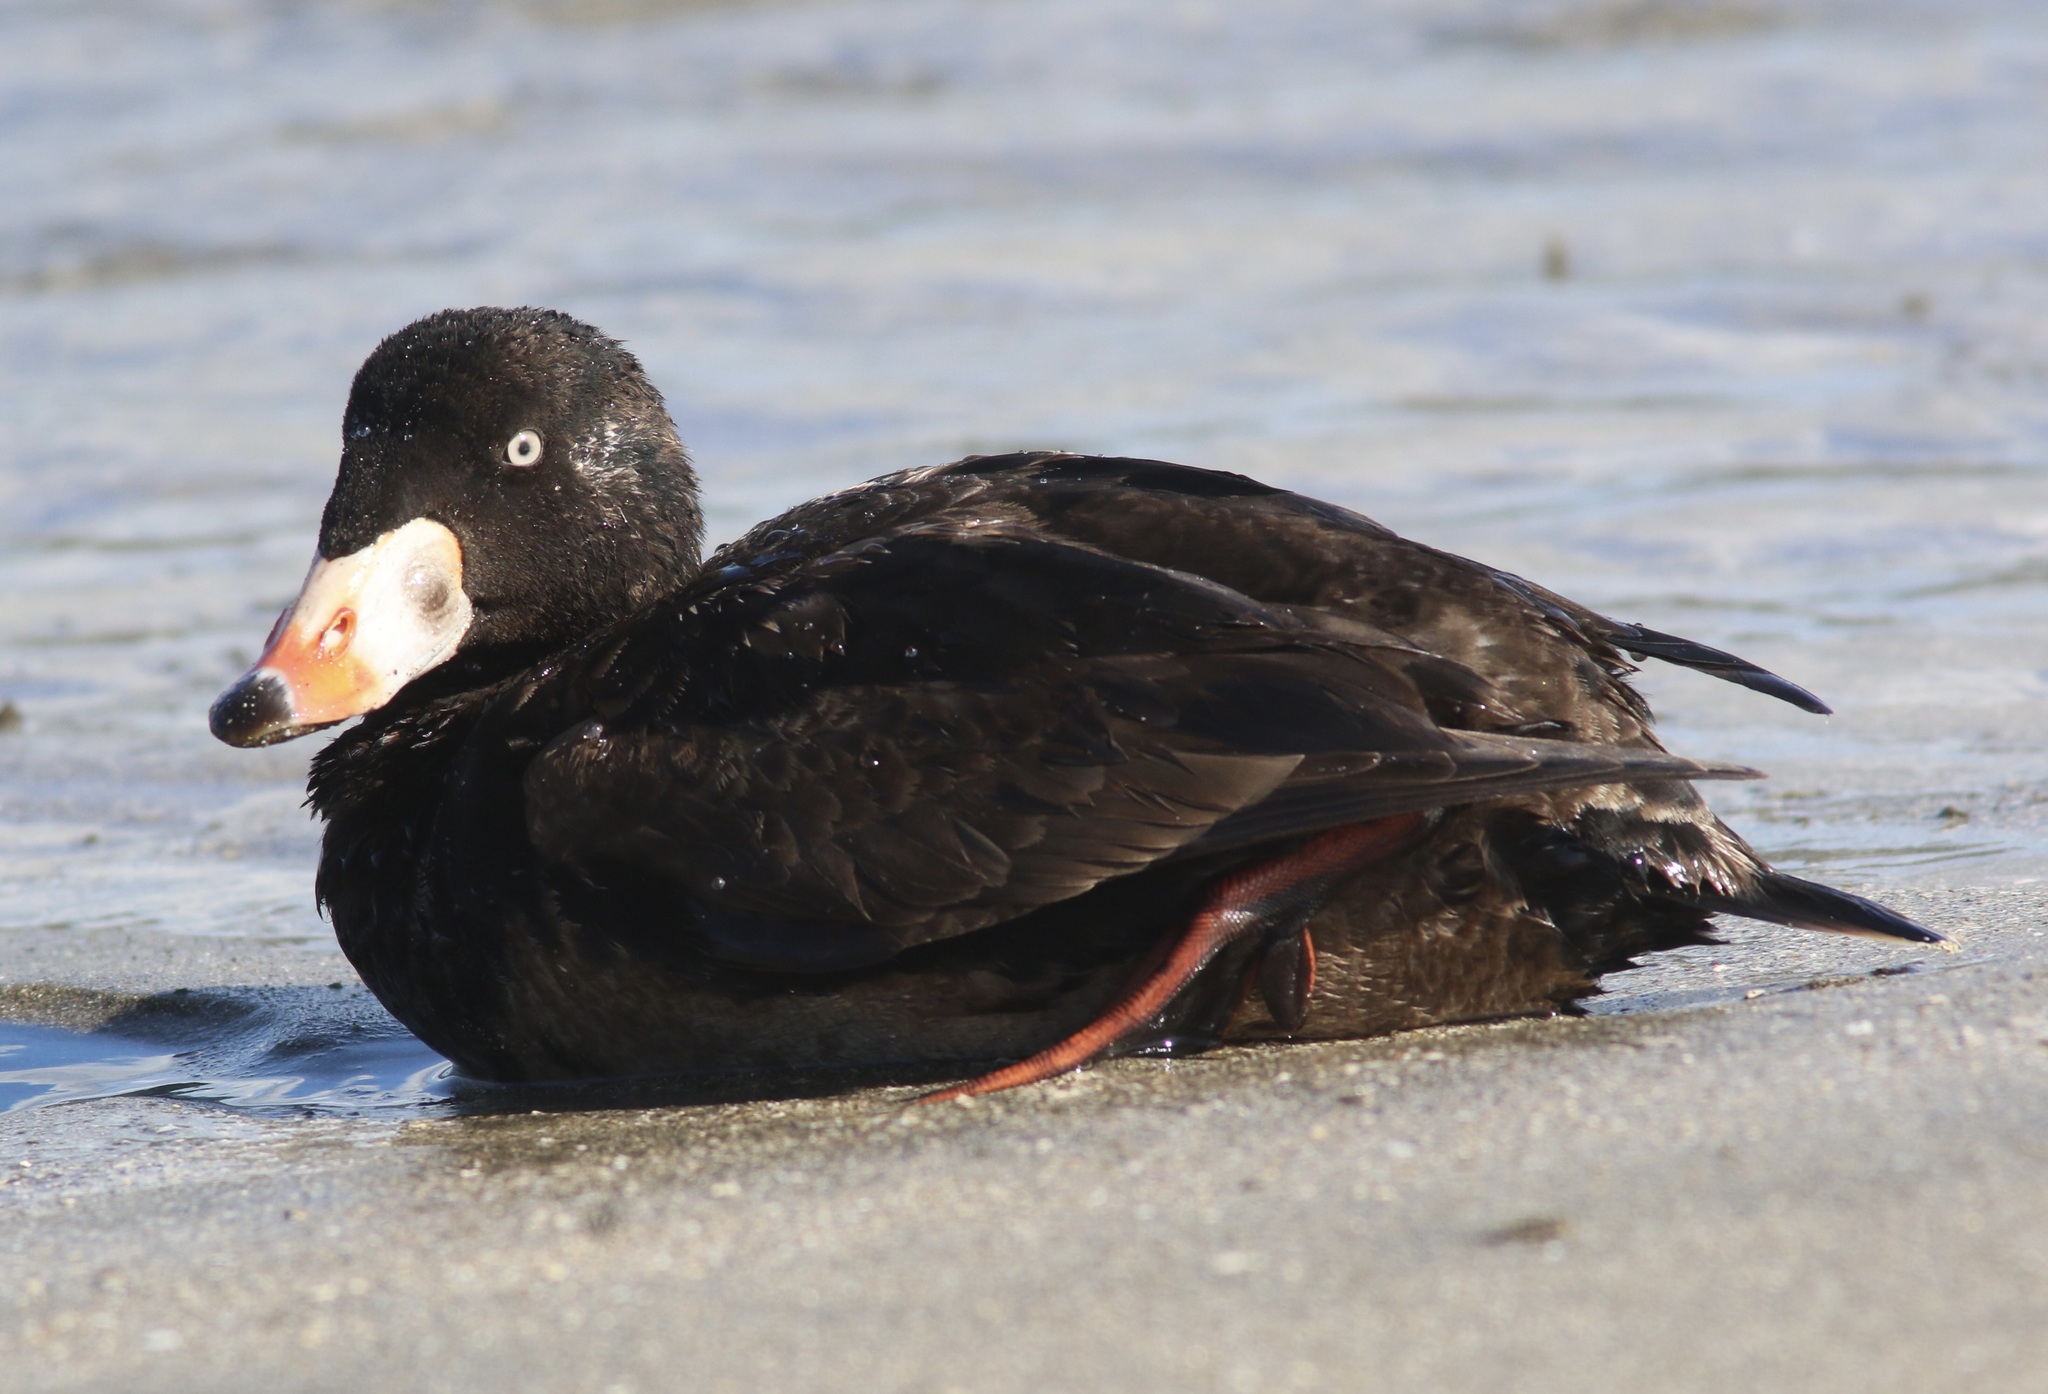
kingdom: Animalia
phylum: Chordata
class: Aves
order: Anseriformes
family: Anatidae
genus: Melanitta
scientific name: Melanitta perspicillata
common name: Surf scoter
